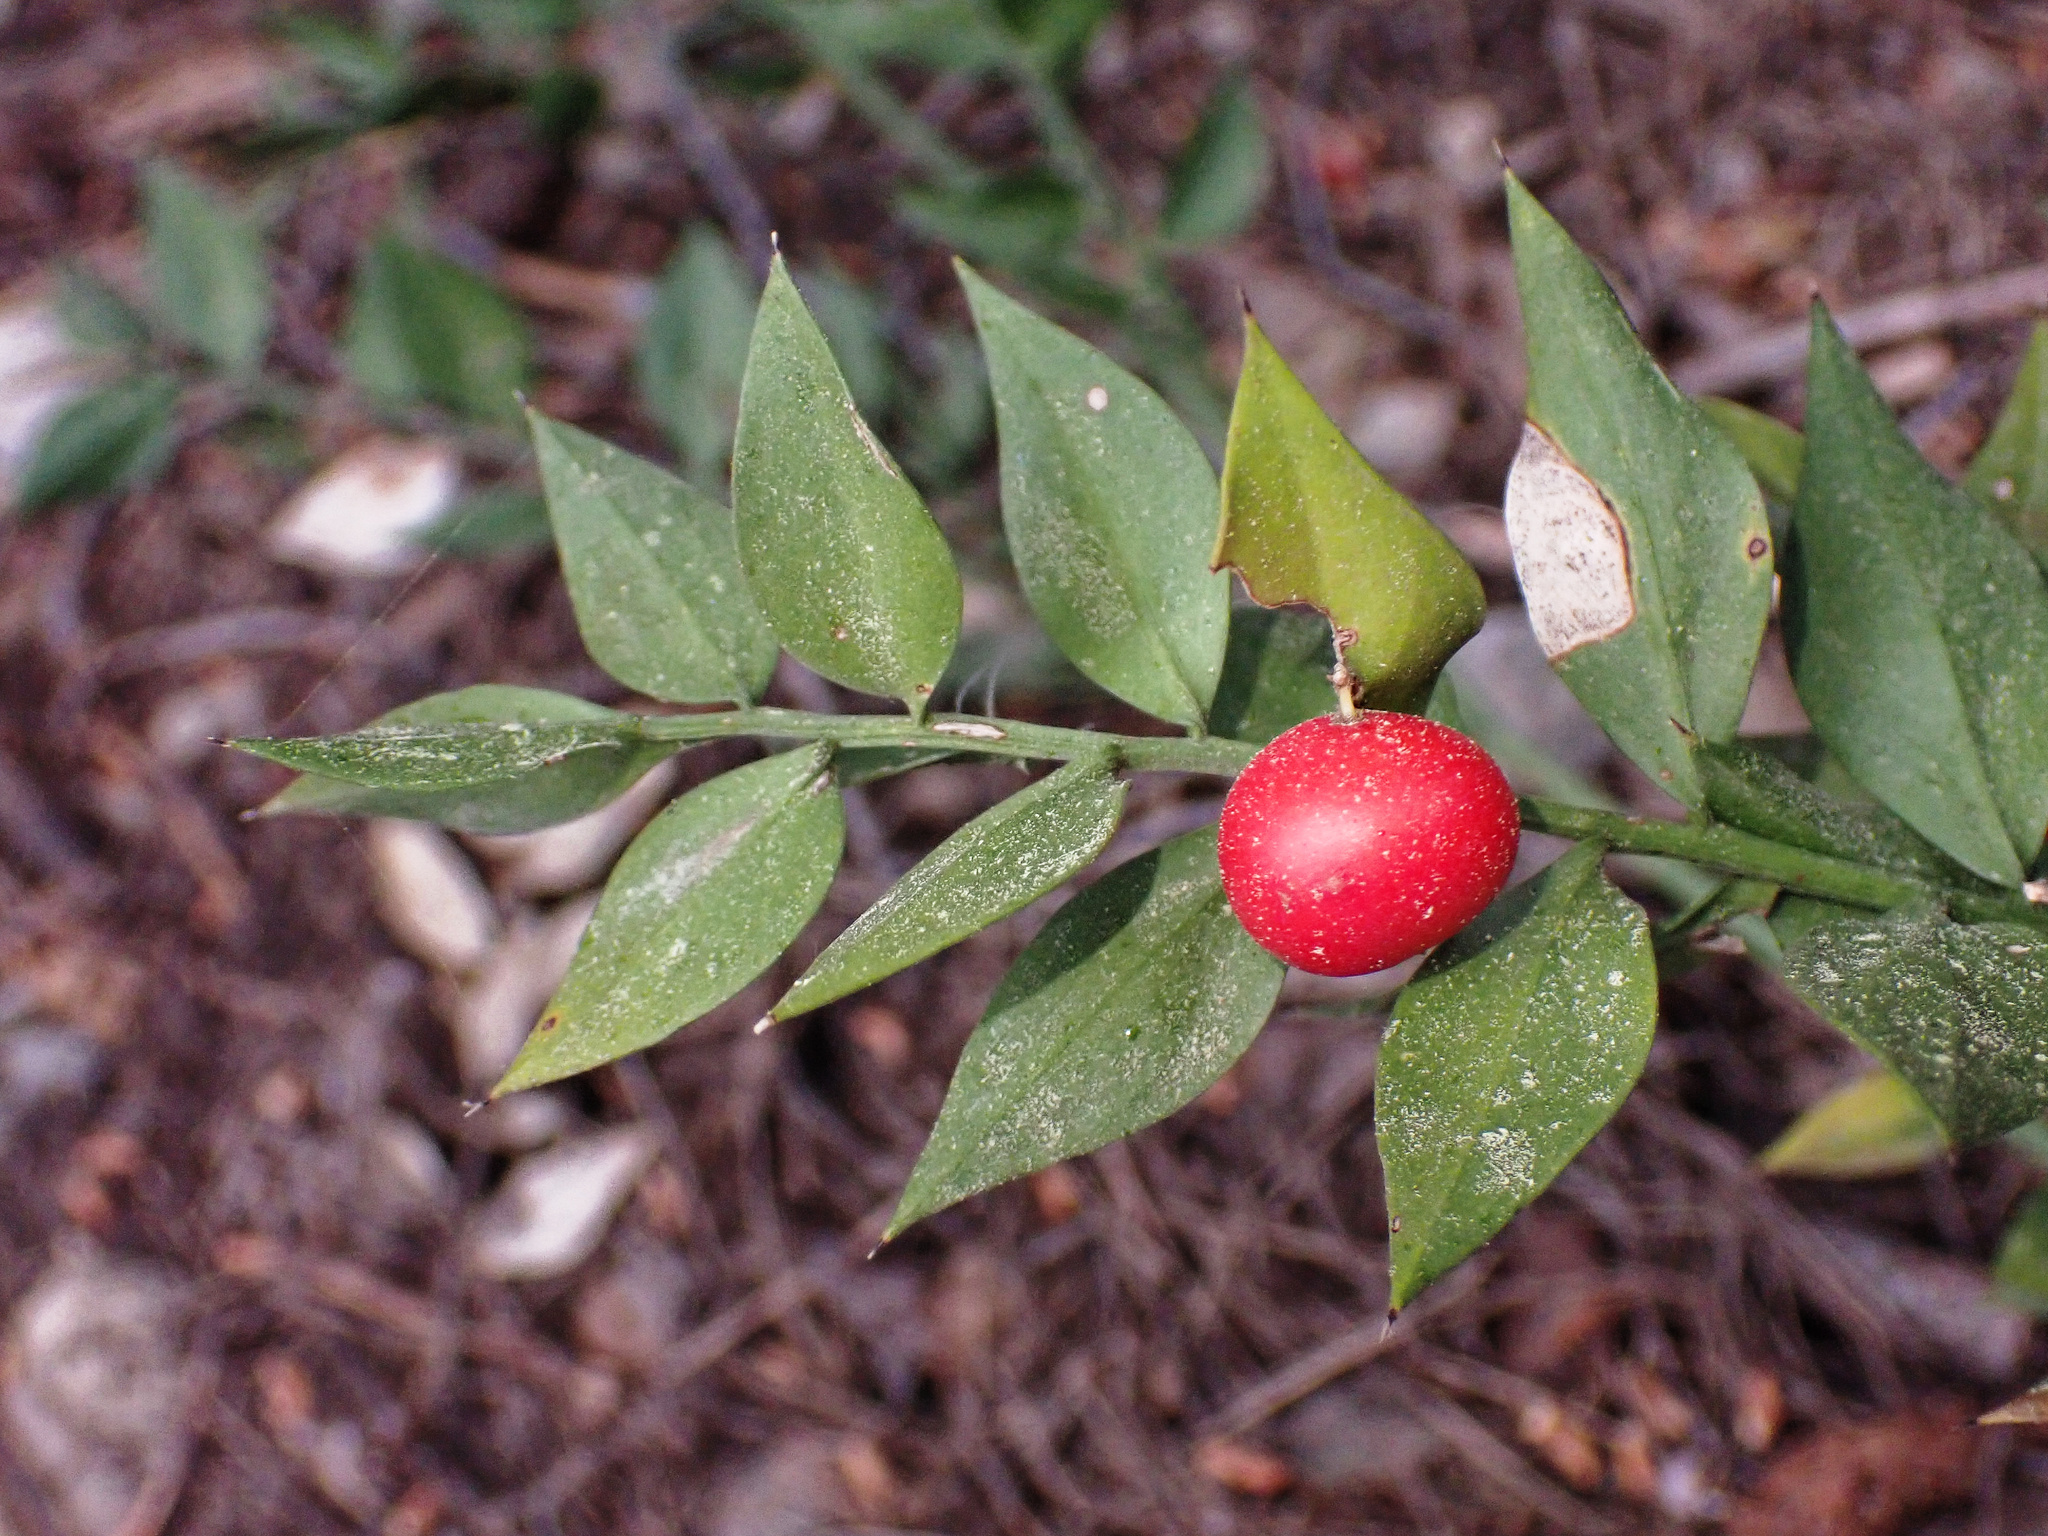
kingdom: Plantae
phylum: Tracheophyta
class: Liliopsida
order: Asparagales
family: Asparagaceae
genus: Ruscus
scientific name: Ruscus aculeatus
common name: Butcher's-broom
